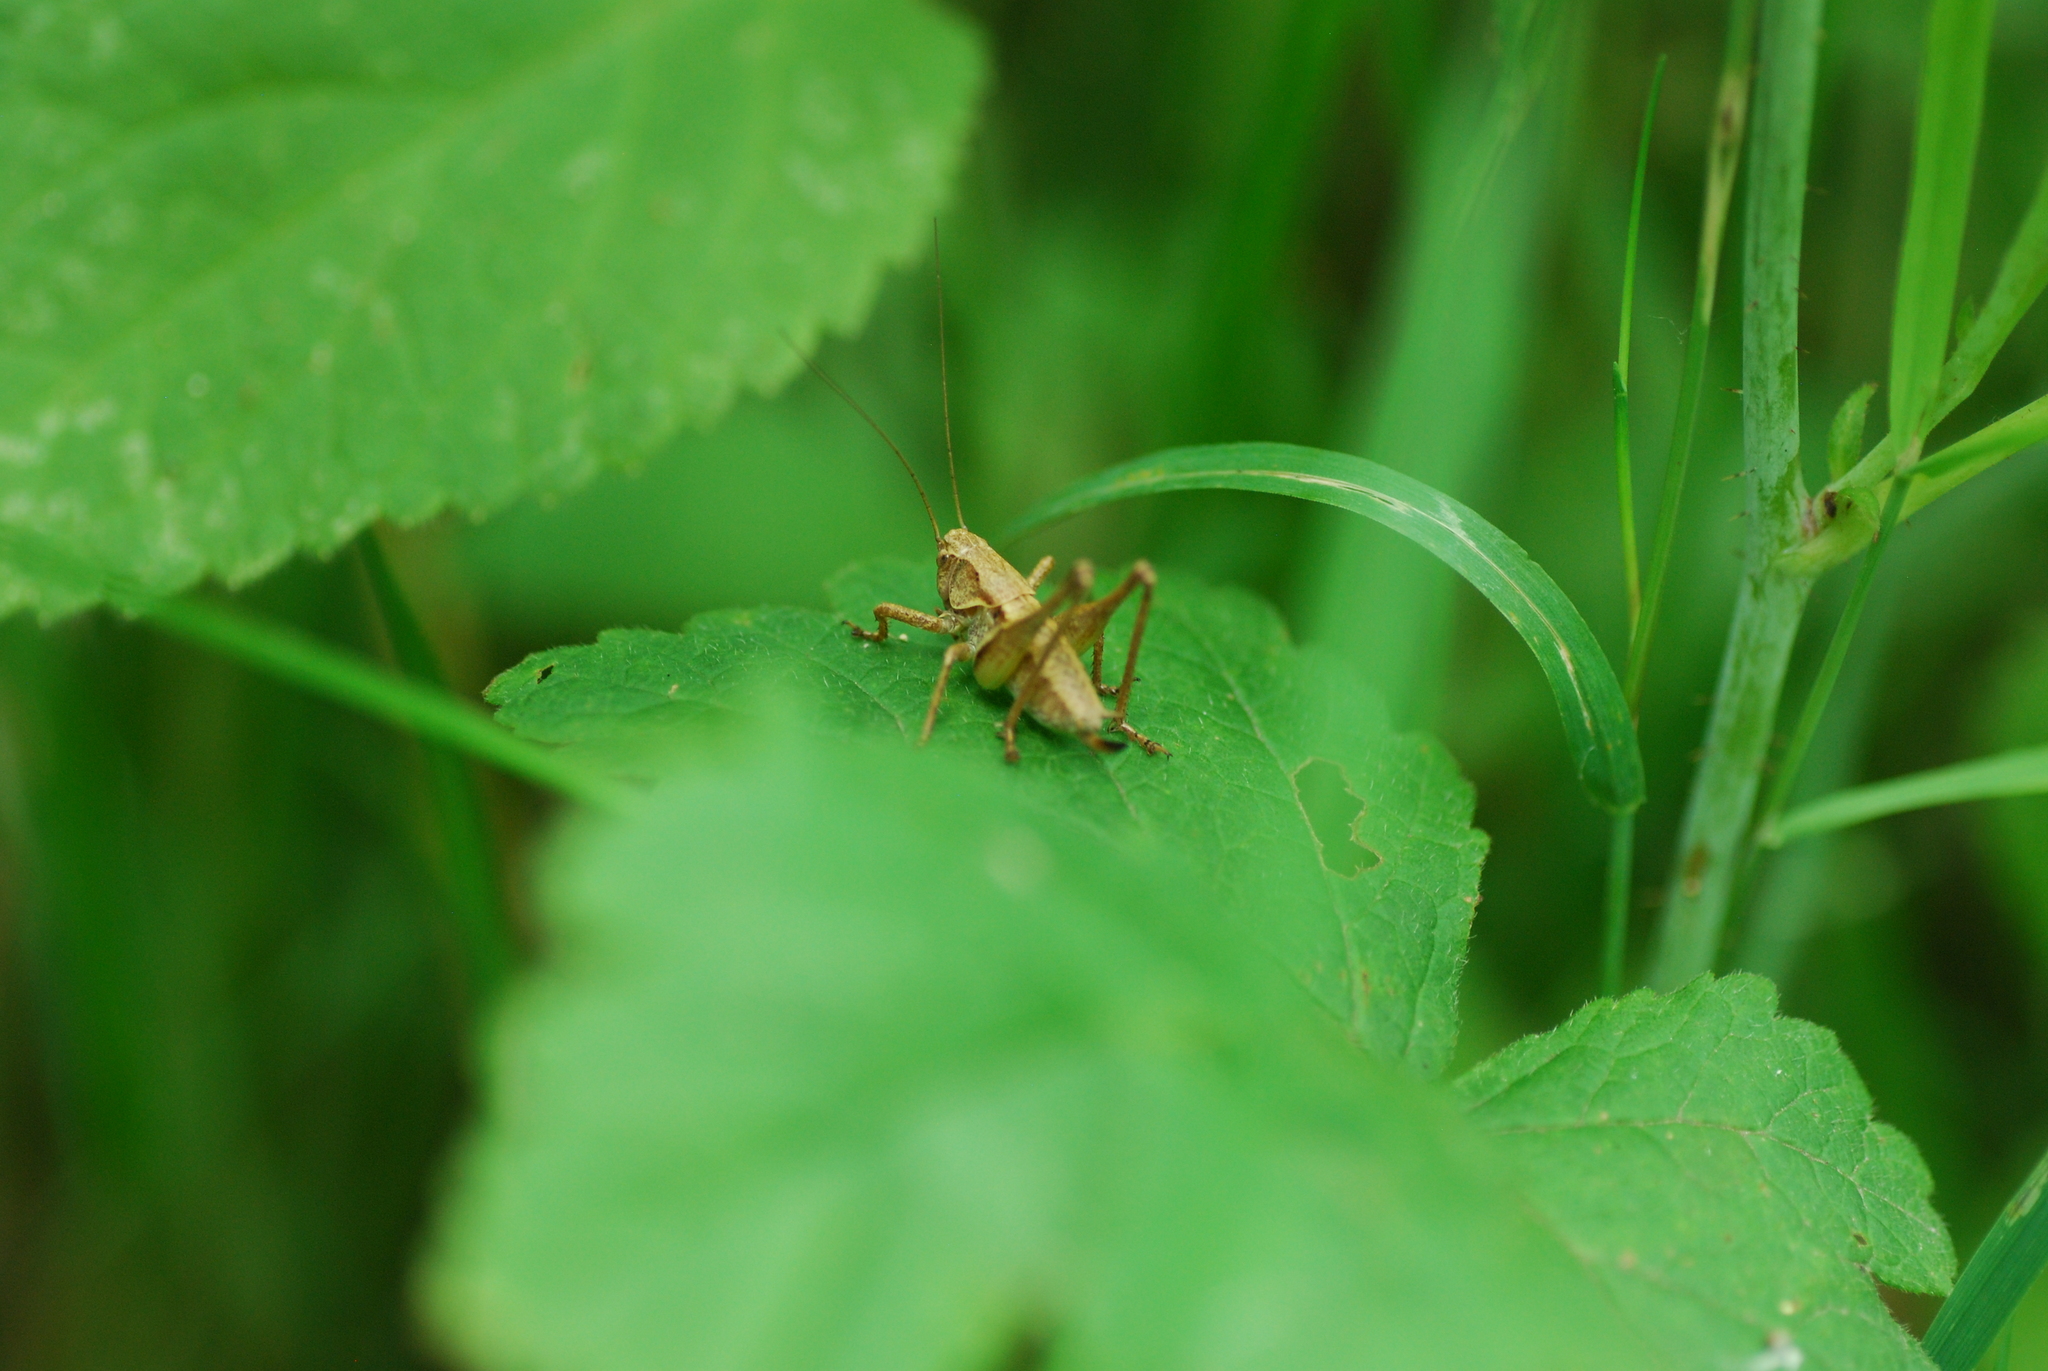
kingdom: Animalia
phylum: Arthropoda
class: Insecta
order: Orthoptera
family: Tettigoniidae
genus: Pholidoptera
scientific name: Pholidoptera griseoaptera
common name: Dark bush-cricket
